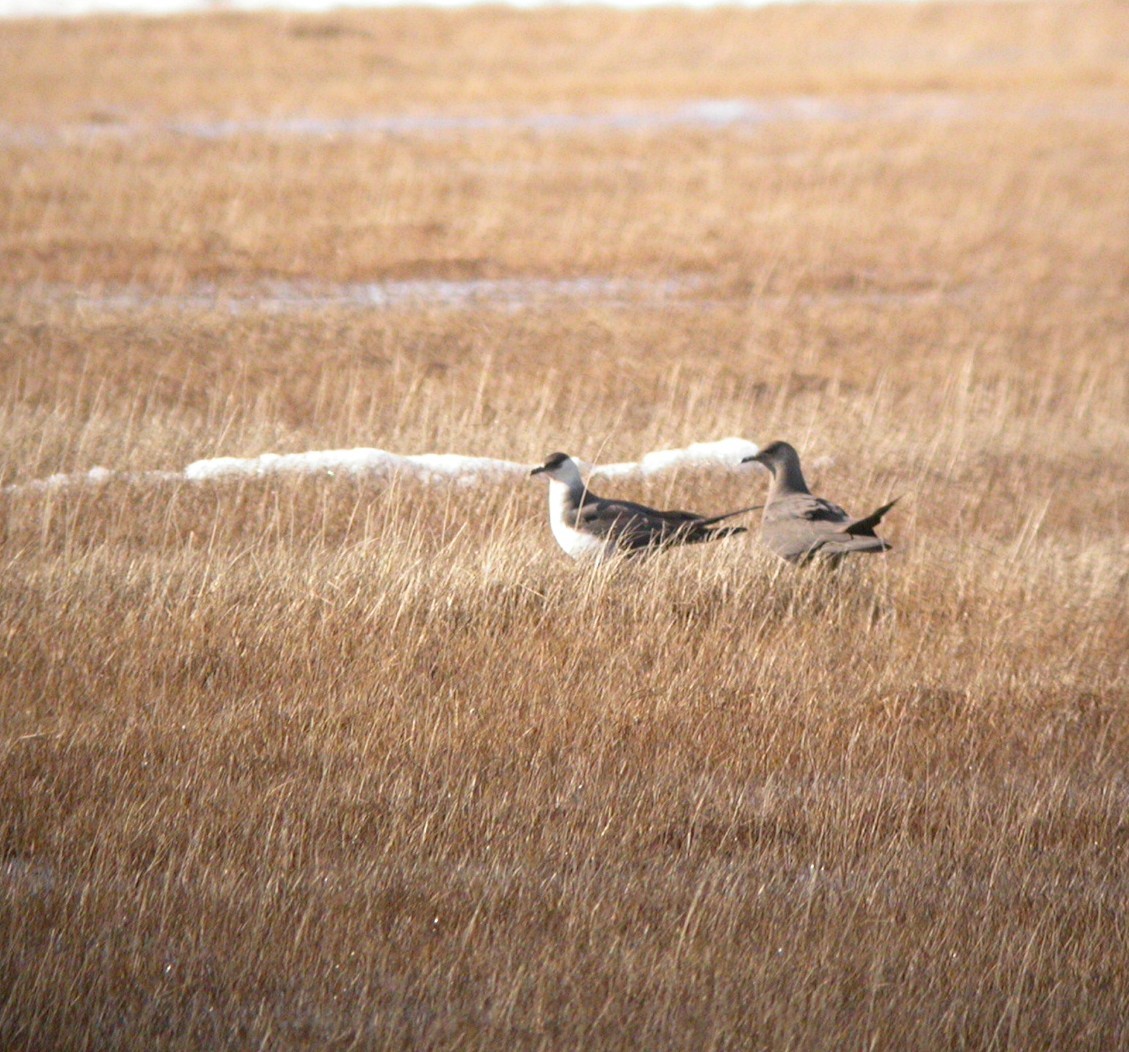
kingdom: Animalia
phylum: Chordata
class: Aves
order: Charadriiformes
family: Stercorariidae
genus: Stercorarius
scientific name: Stercorarius parasiticus
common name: Parasitic jaeger
